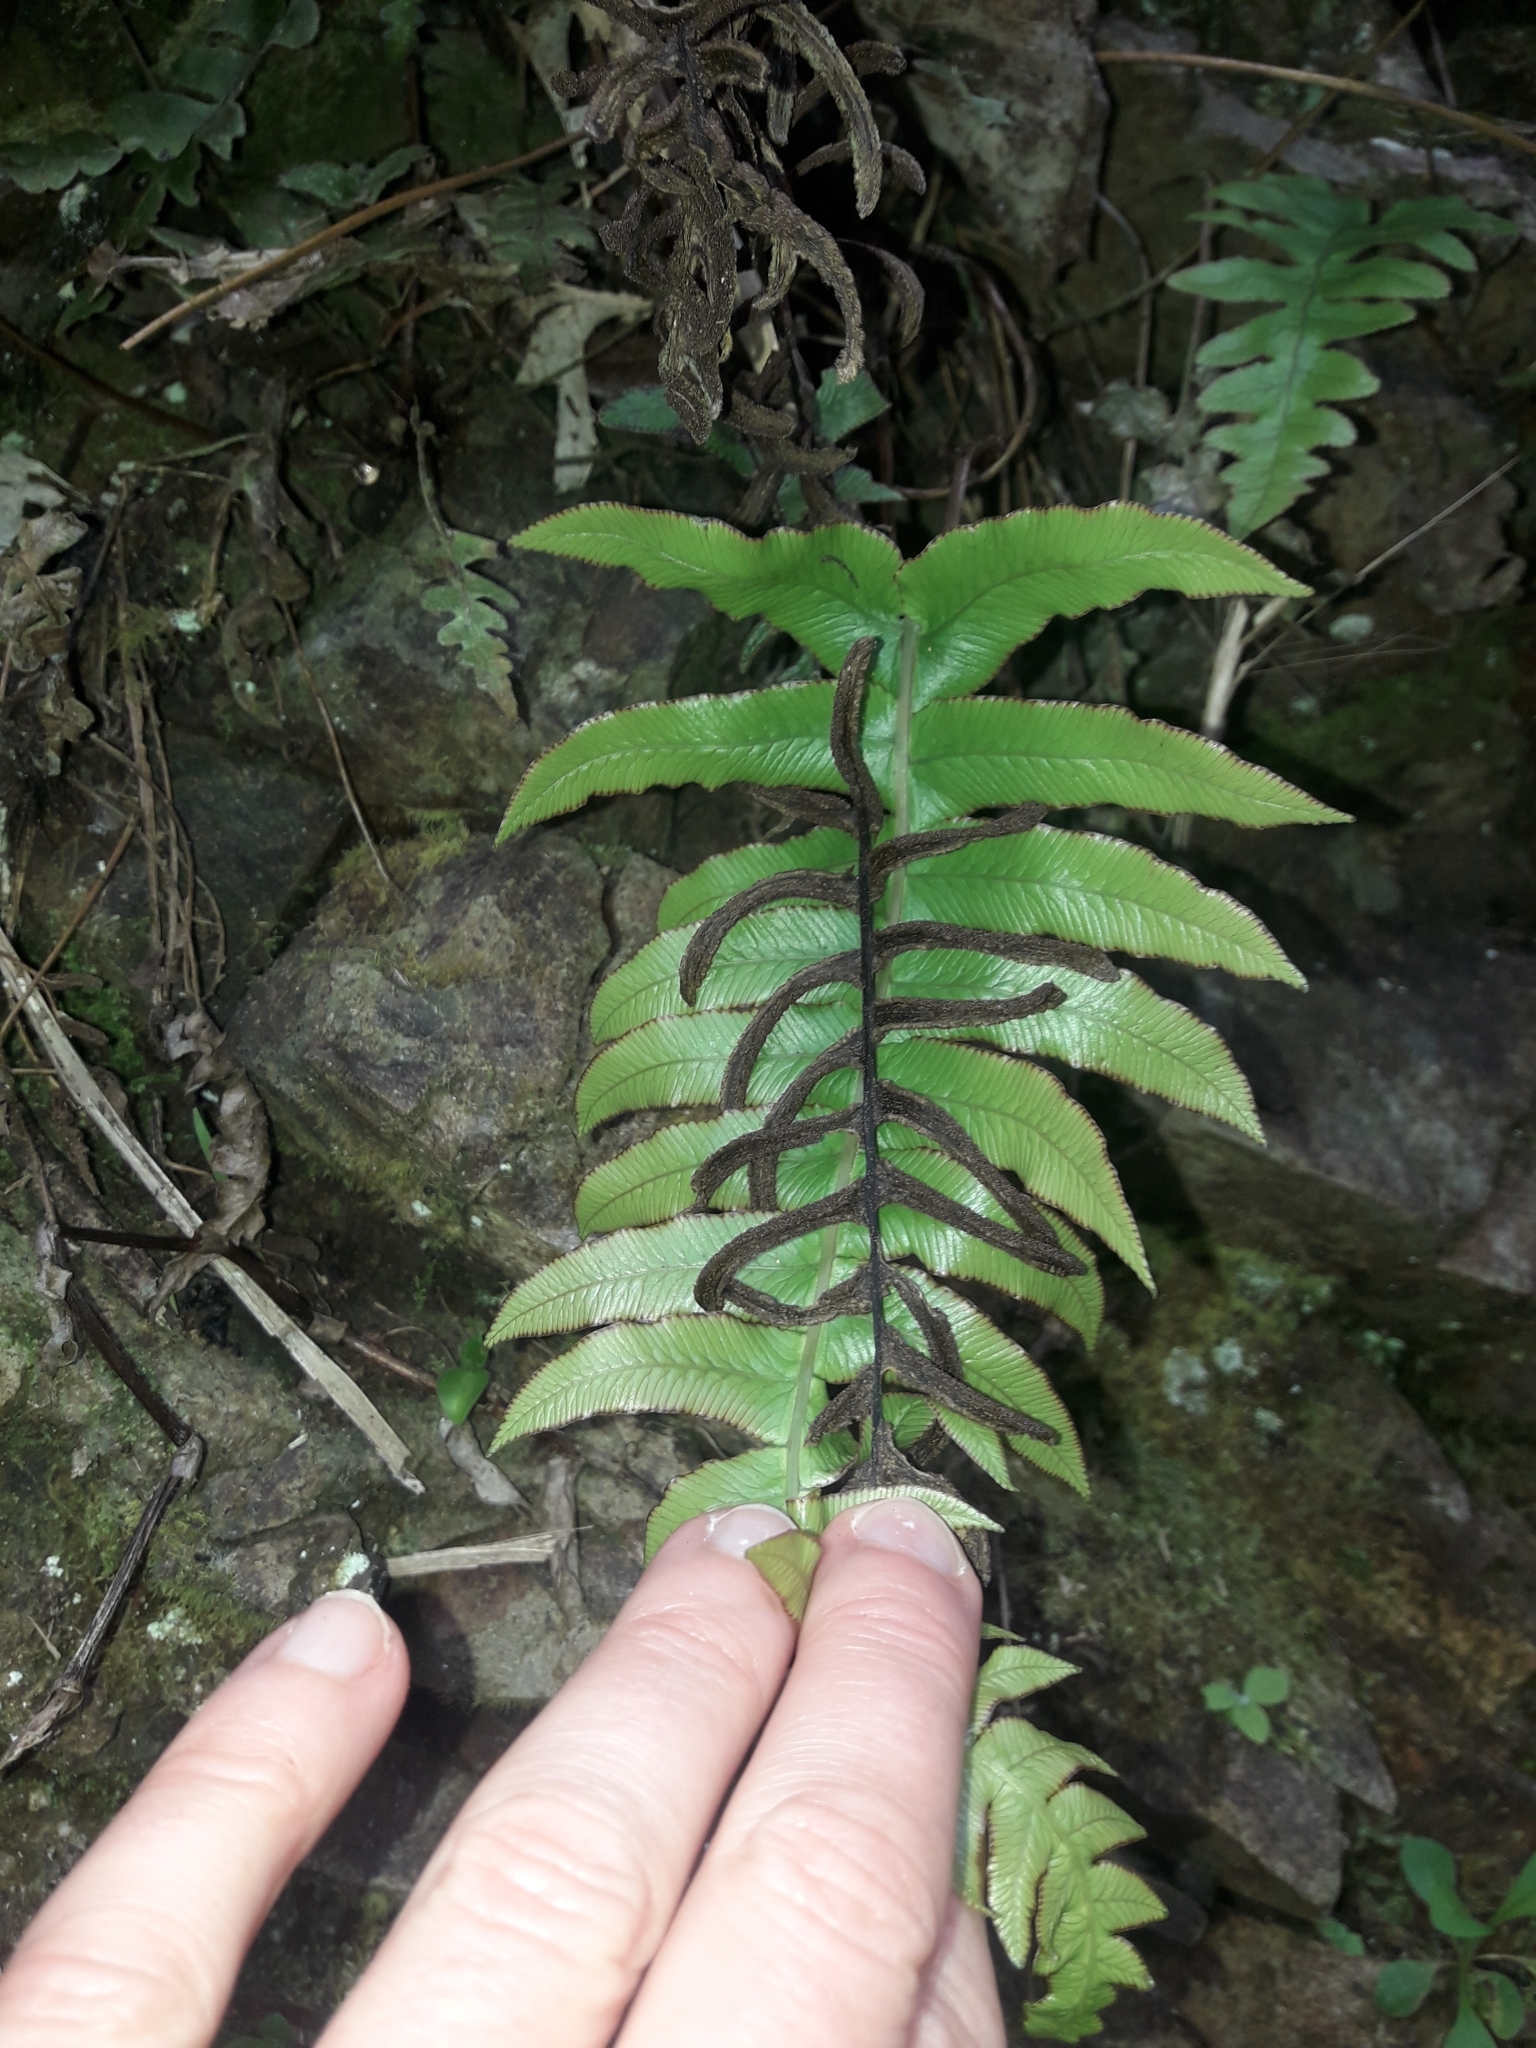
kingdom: Plantae
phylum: Tracheophyta
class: Polypodiopsida
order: Polypodiales
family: Blechnaceae
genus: Cranfillia
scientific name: Cranfillia deltoides
